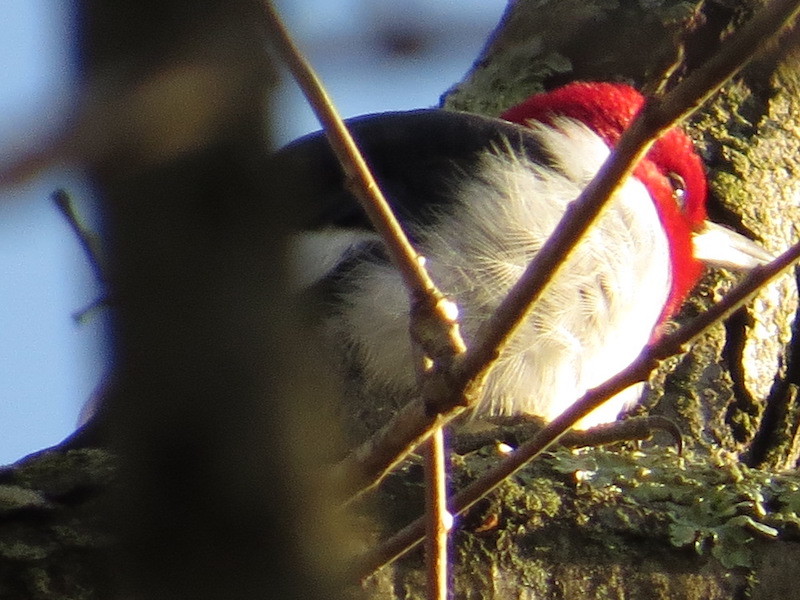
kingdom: Animalia
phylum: Chordata
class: Aves
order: Piciformes
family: Picidae
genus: Melanerpes
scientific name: Melanerpes erythrocephalus
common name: Red-headed woodpecker
